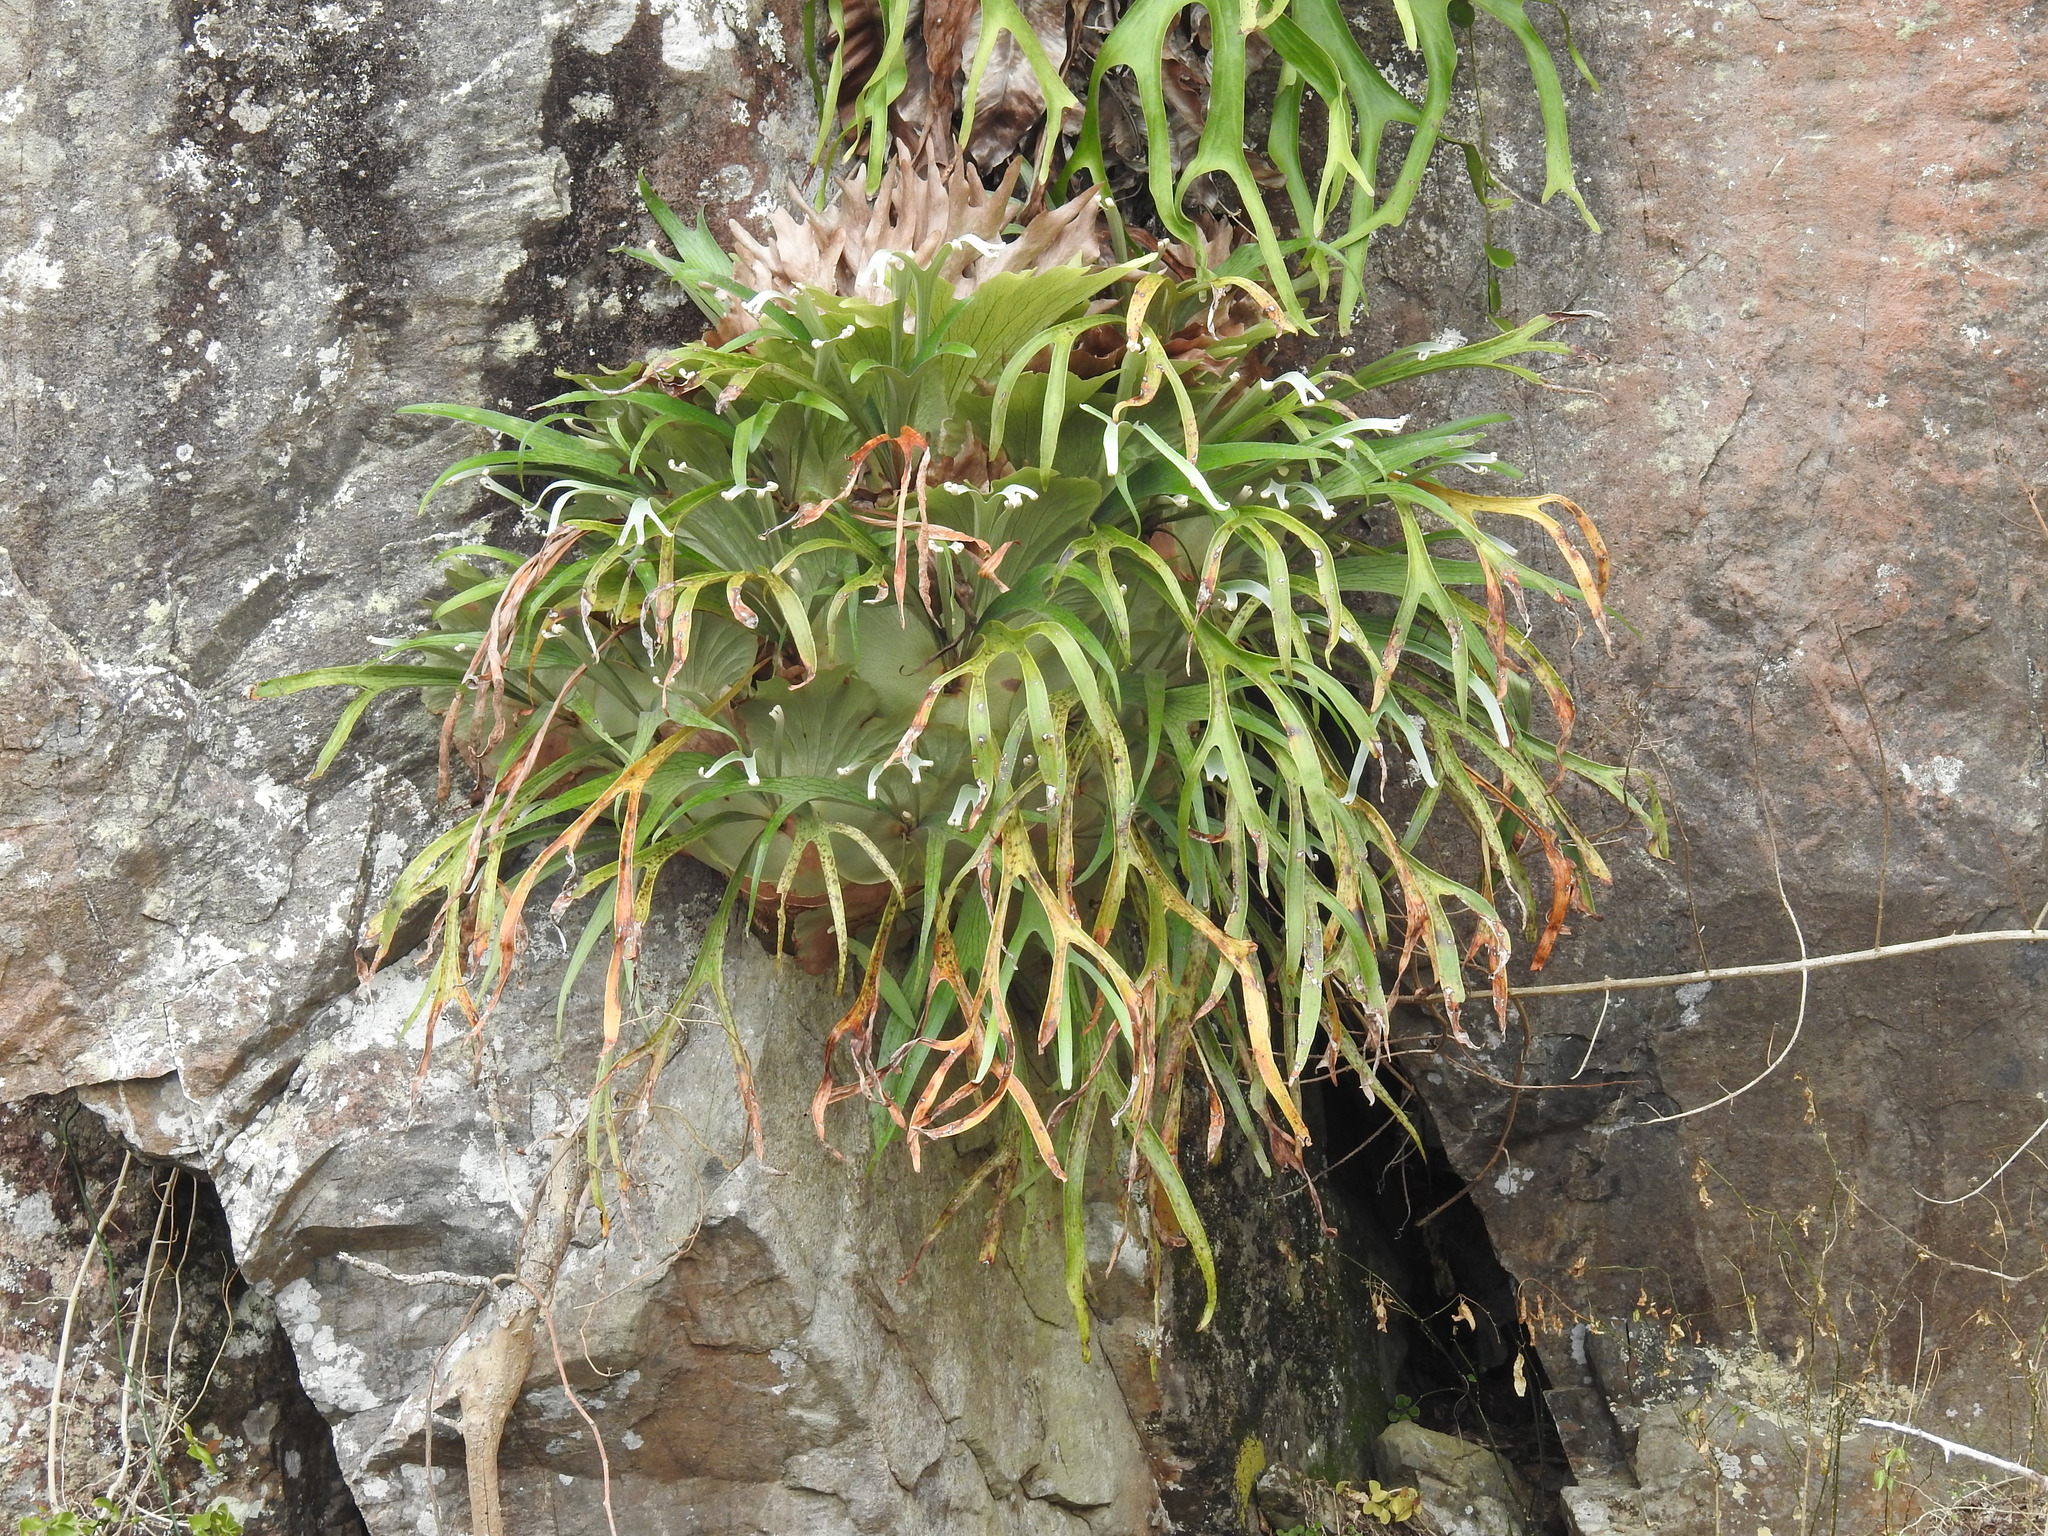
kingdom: Plantae
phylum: Tracheophyta
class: Polypodiopsida
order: Polypodiales
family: Polypodiaceae
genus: Platycerium
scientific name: Platycerium bifurcatum
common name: Elkhorn fern
